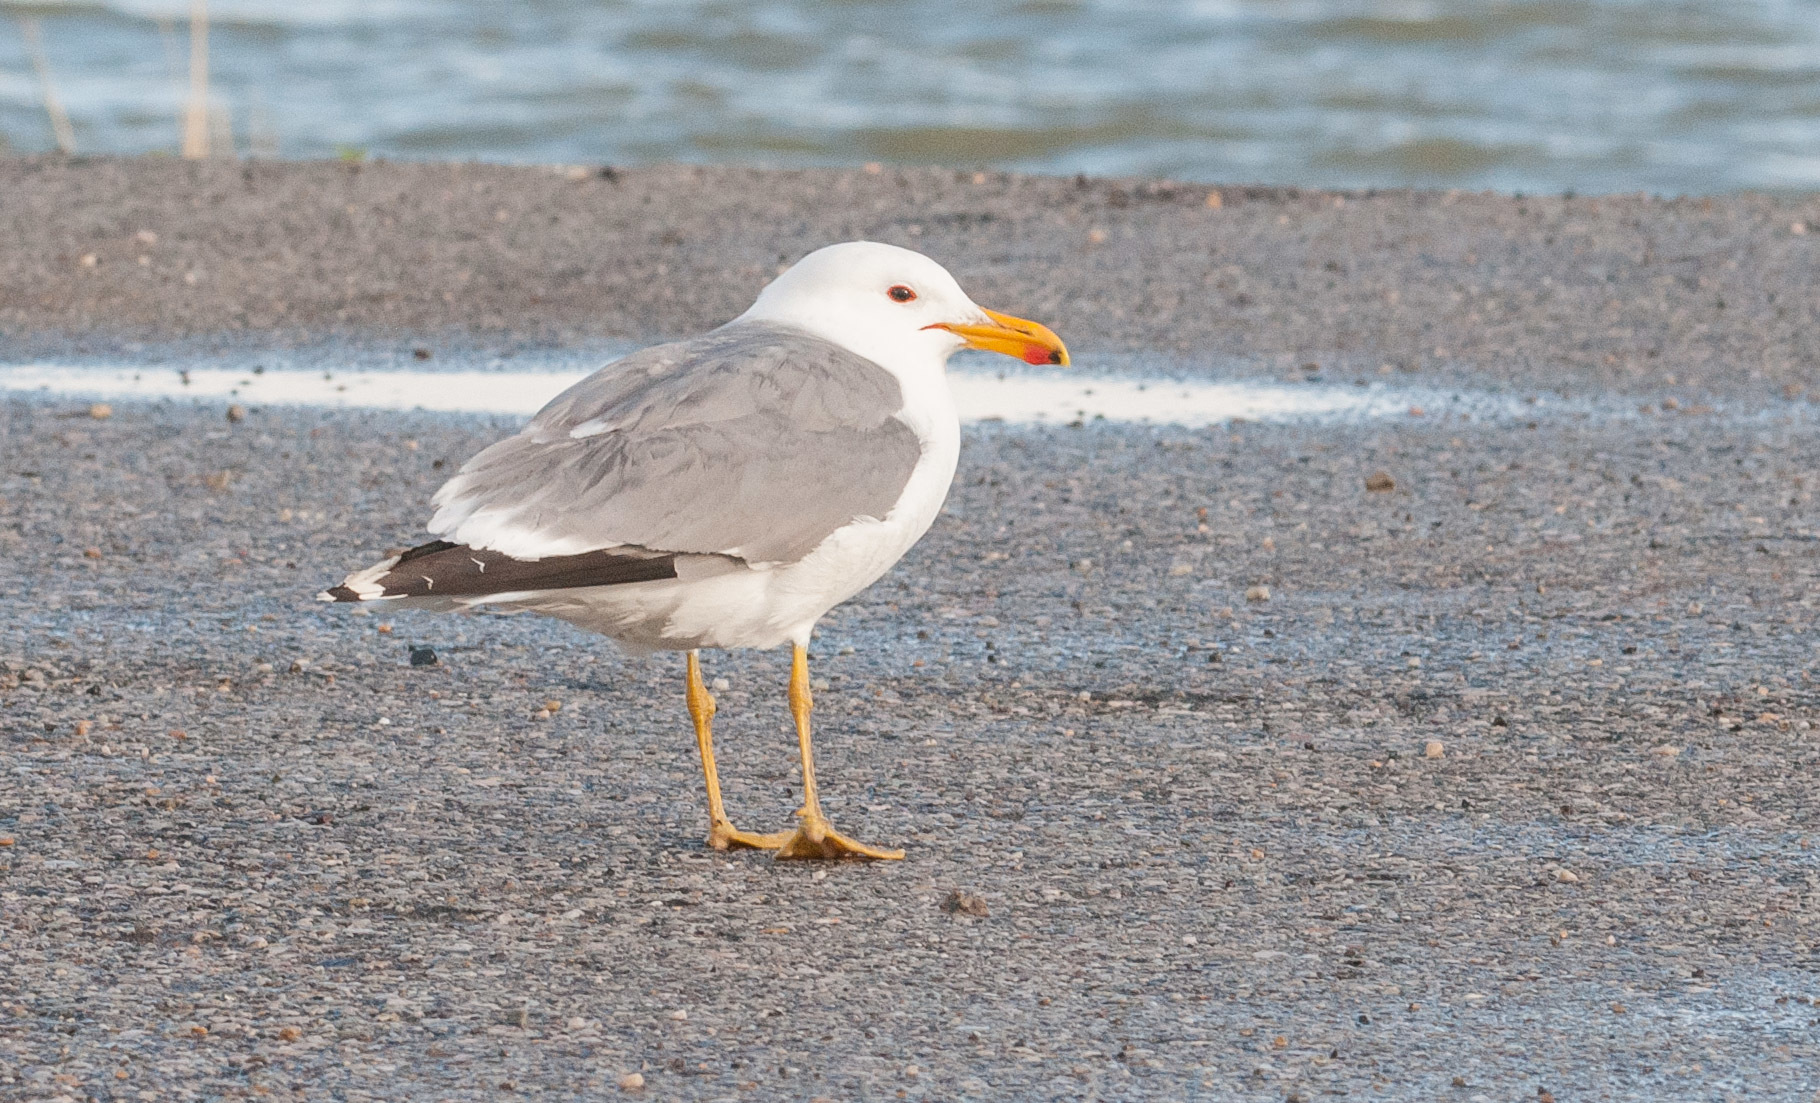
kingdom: Animalia
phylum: Chordata
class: Aves
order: Charadriiformes
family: Laridae
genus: Larus
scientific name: Larus californicus
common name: California gull
